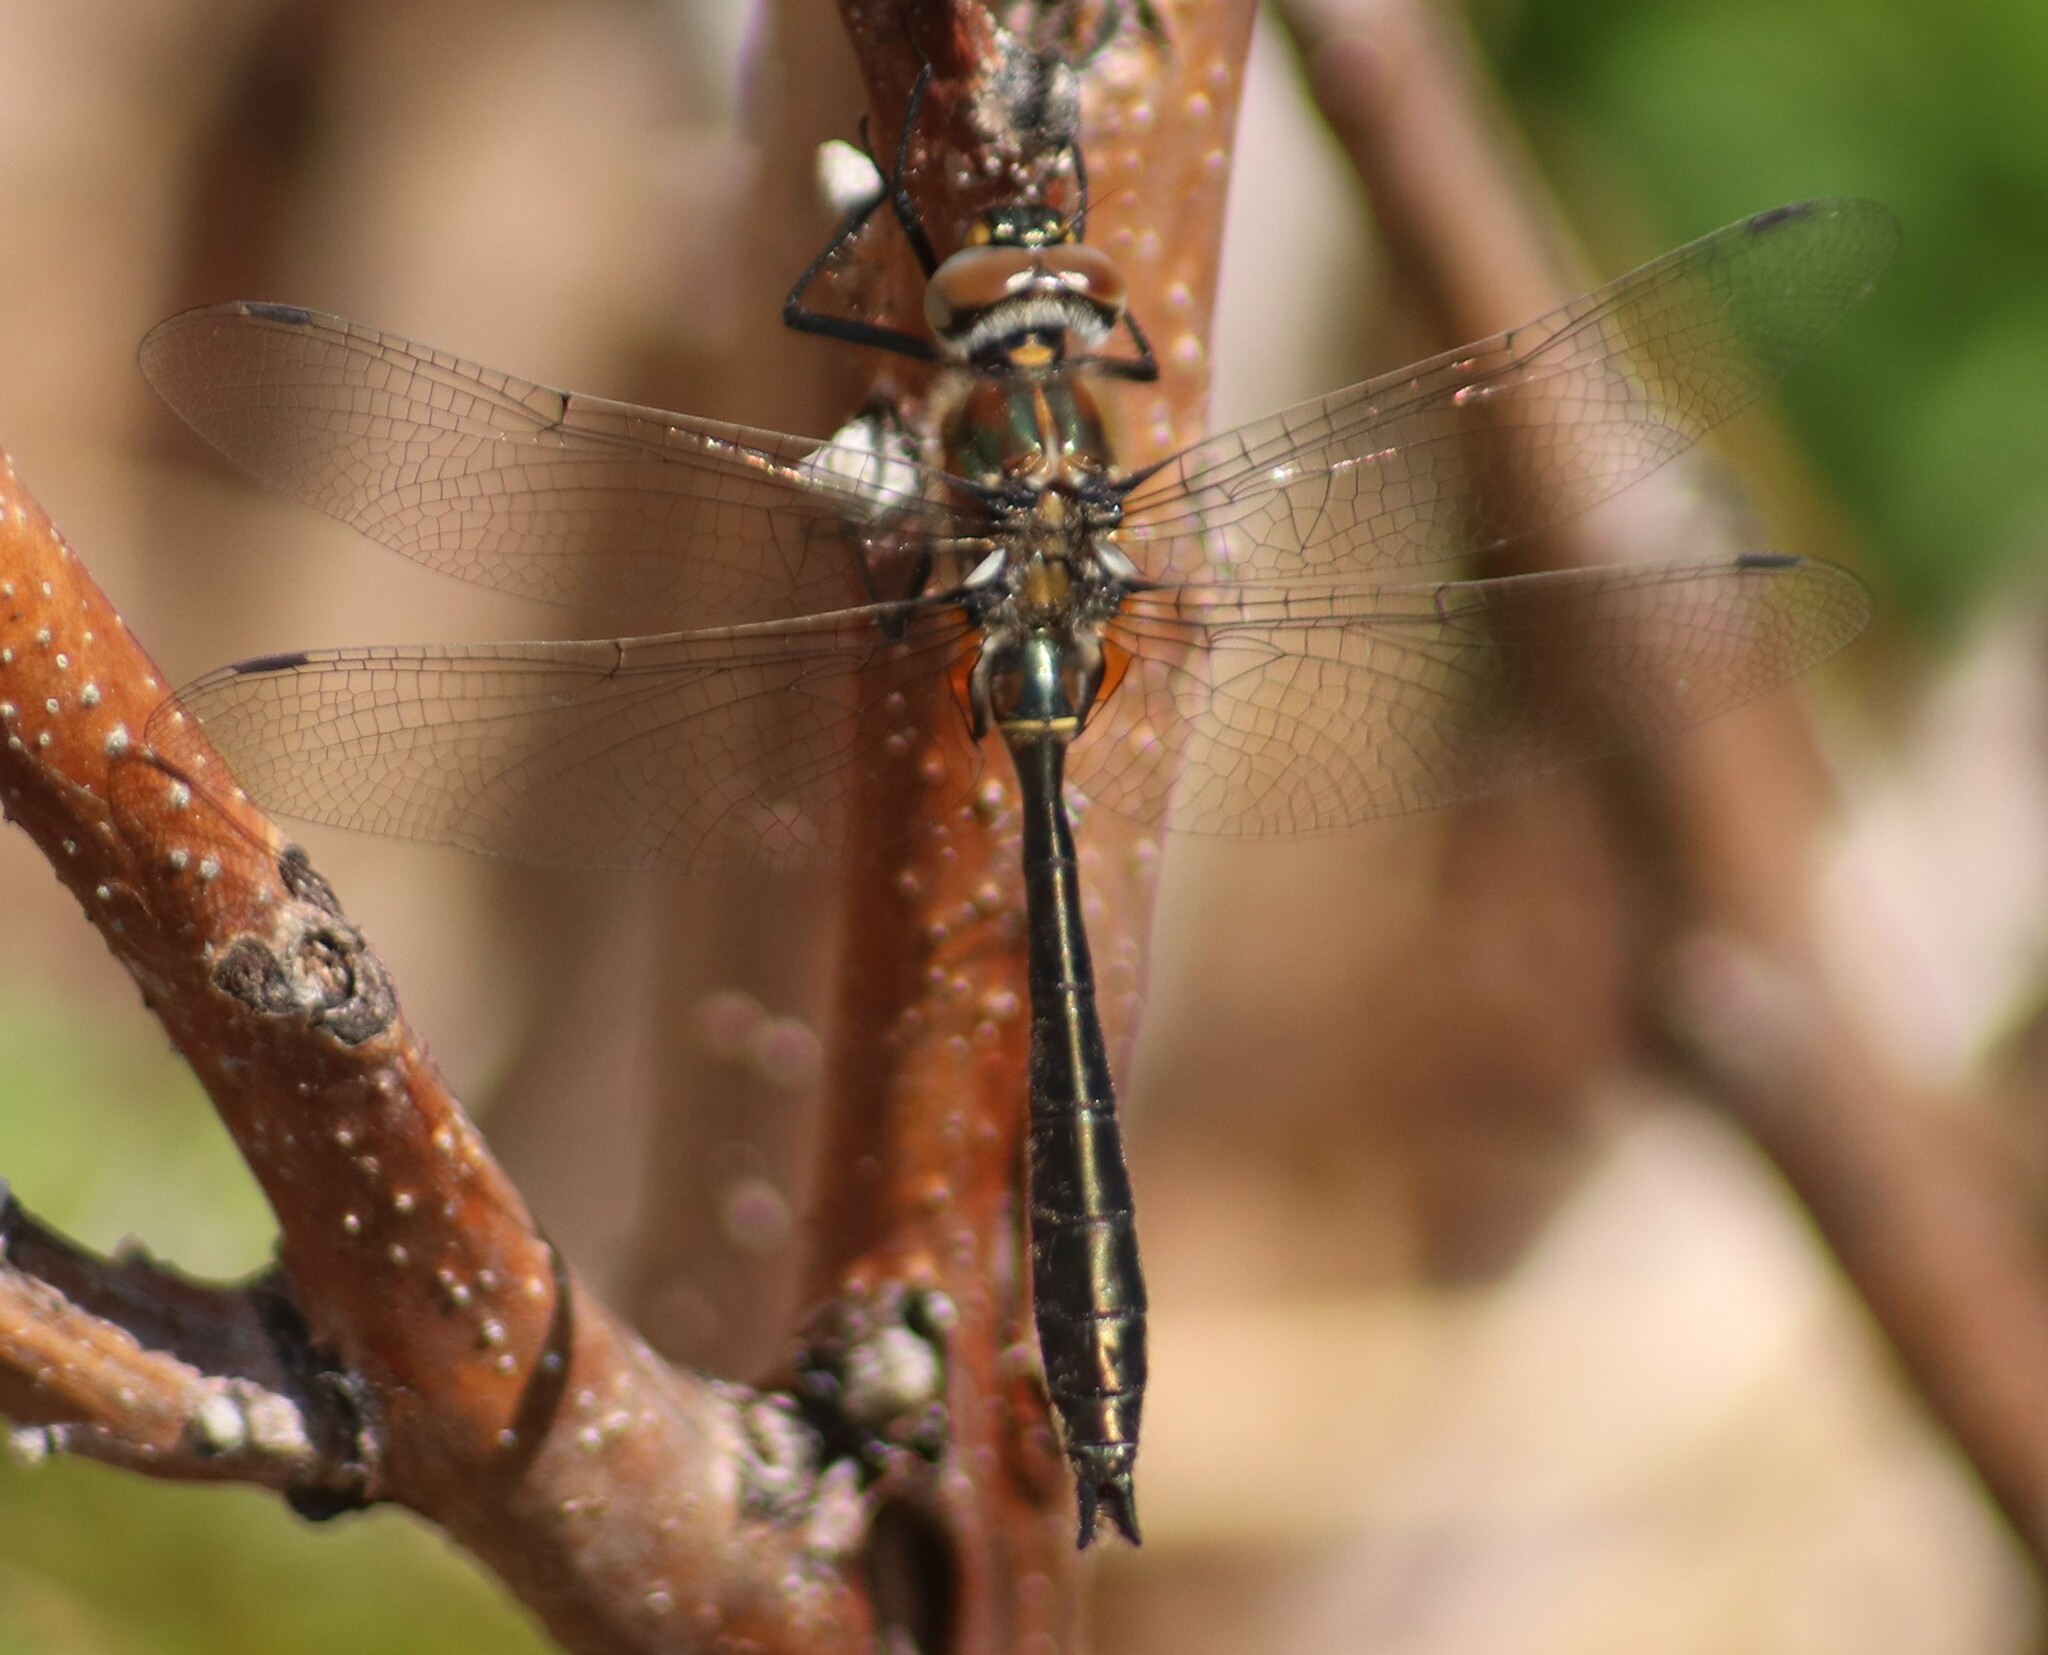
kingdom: Animalia
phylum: Arthropoda
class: Insecta
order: Odonata
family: Corduliidae
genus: Cordulia
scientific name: Cordulia shurtleffii
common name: American emerald
